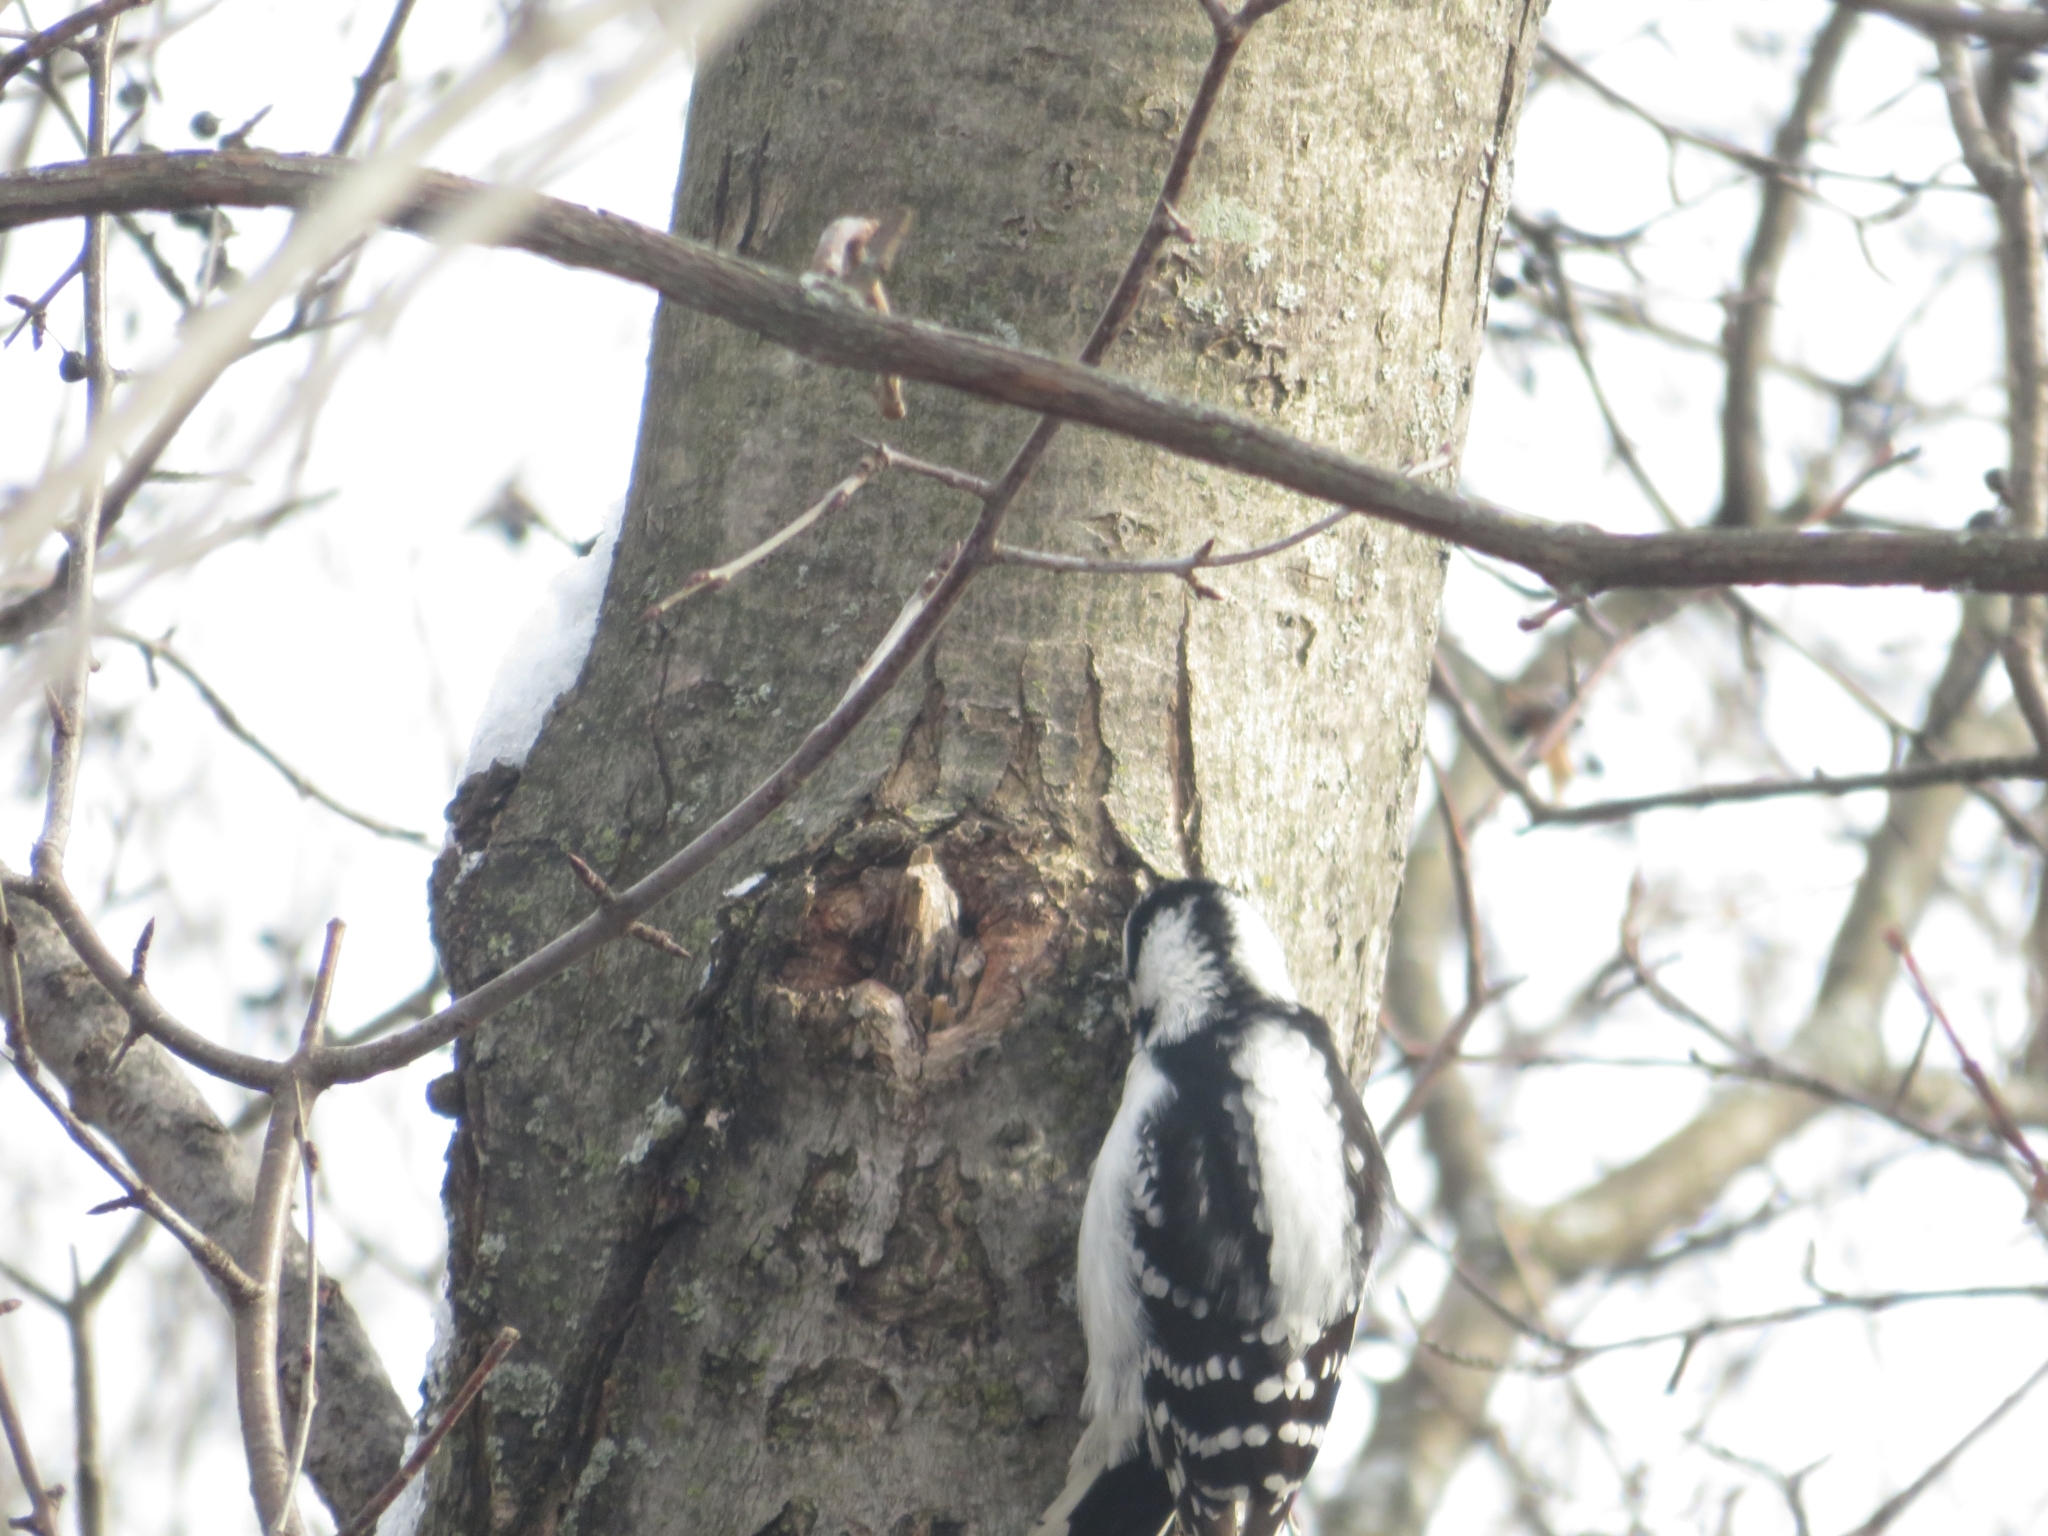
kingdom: Animalia
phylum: Chordata
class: Aves
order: Piciformes
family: Picidae
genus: Dryobates
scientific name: Dryobates pubescens
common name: Downy woodpecker
